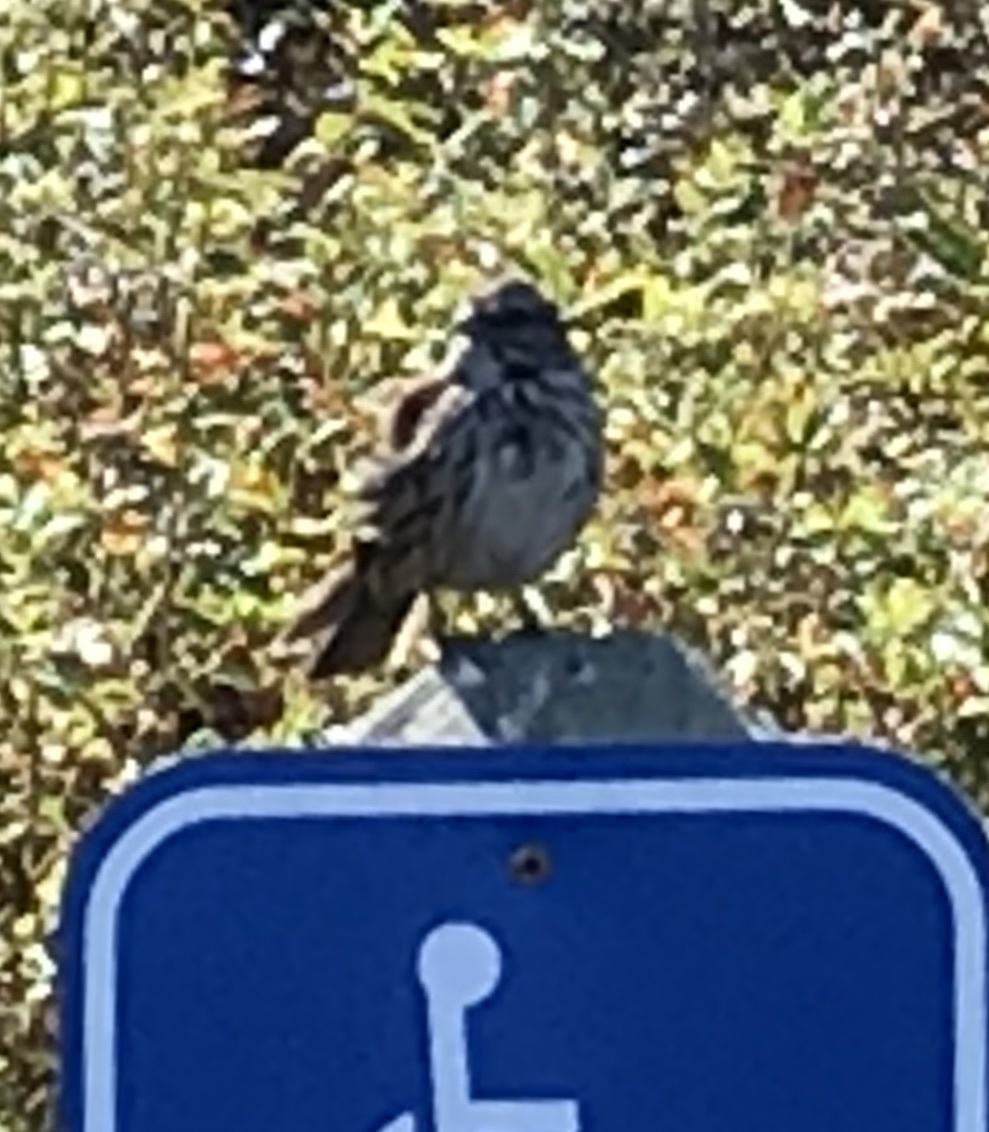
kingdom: Animalia
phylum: Chordata
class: Aves
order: Passeriformes
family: Passerellidae
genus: Melospiza
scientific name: Melospiza melodia
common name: Song sparrow
